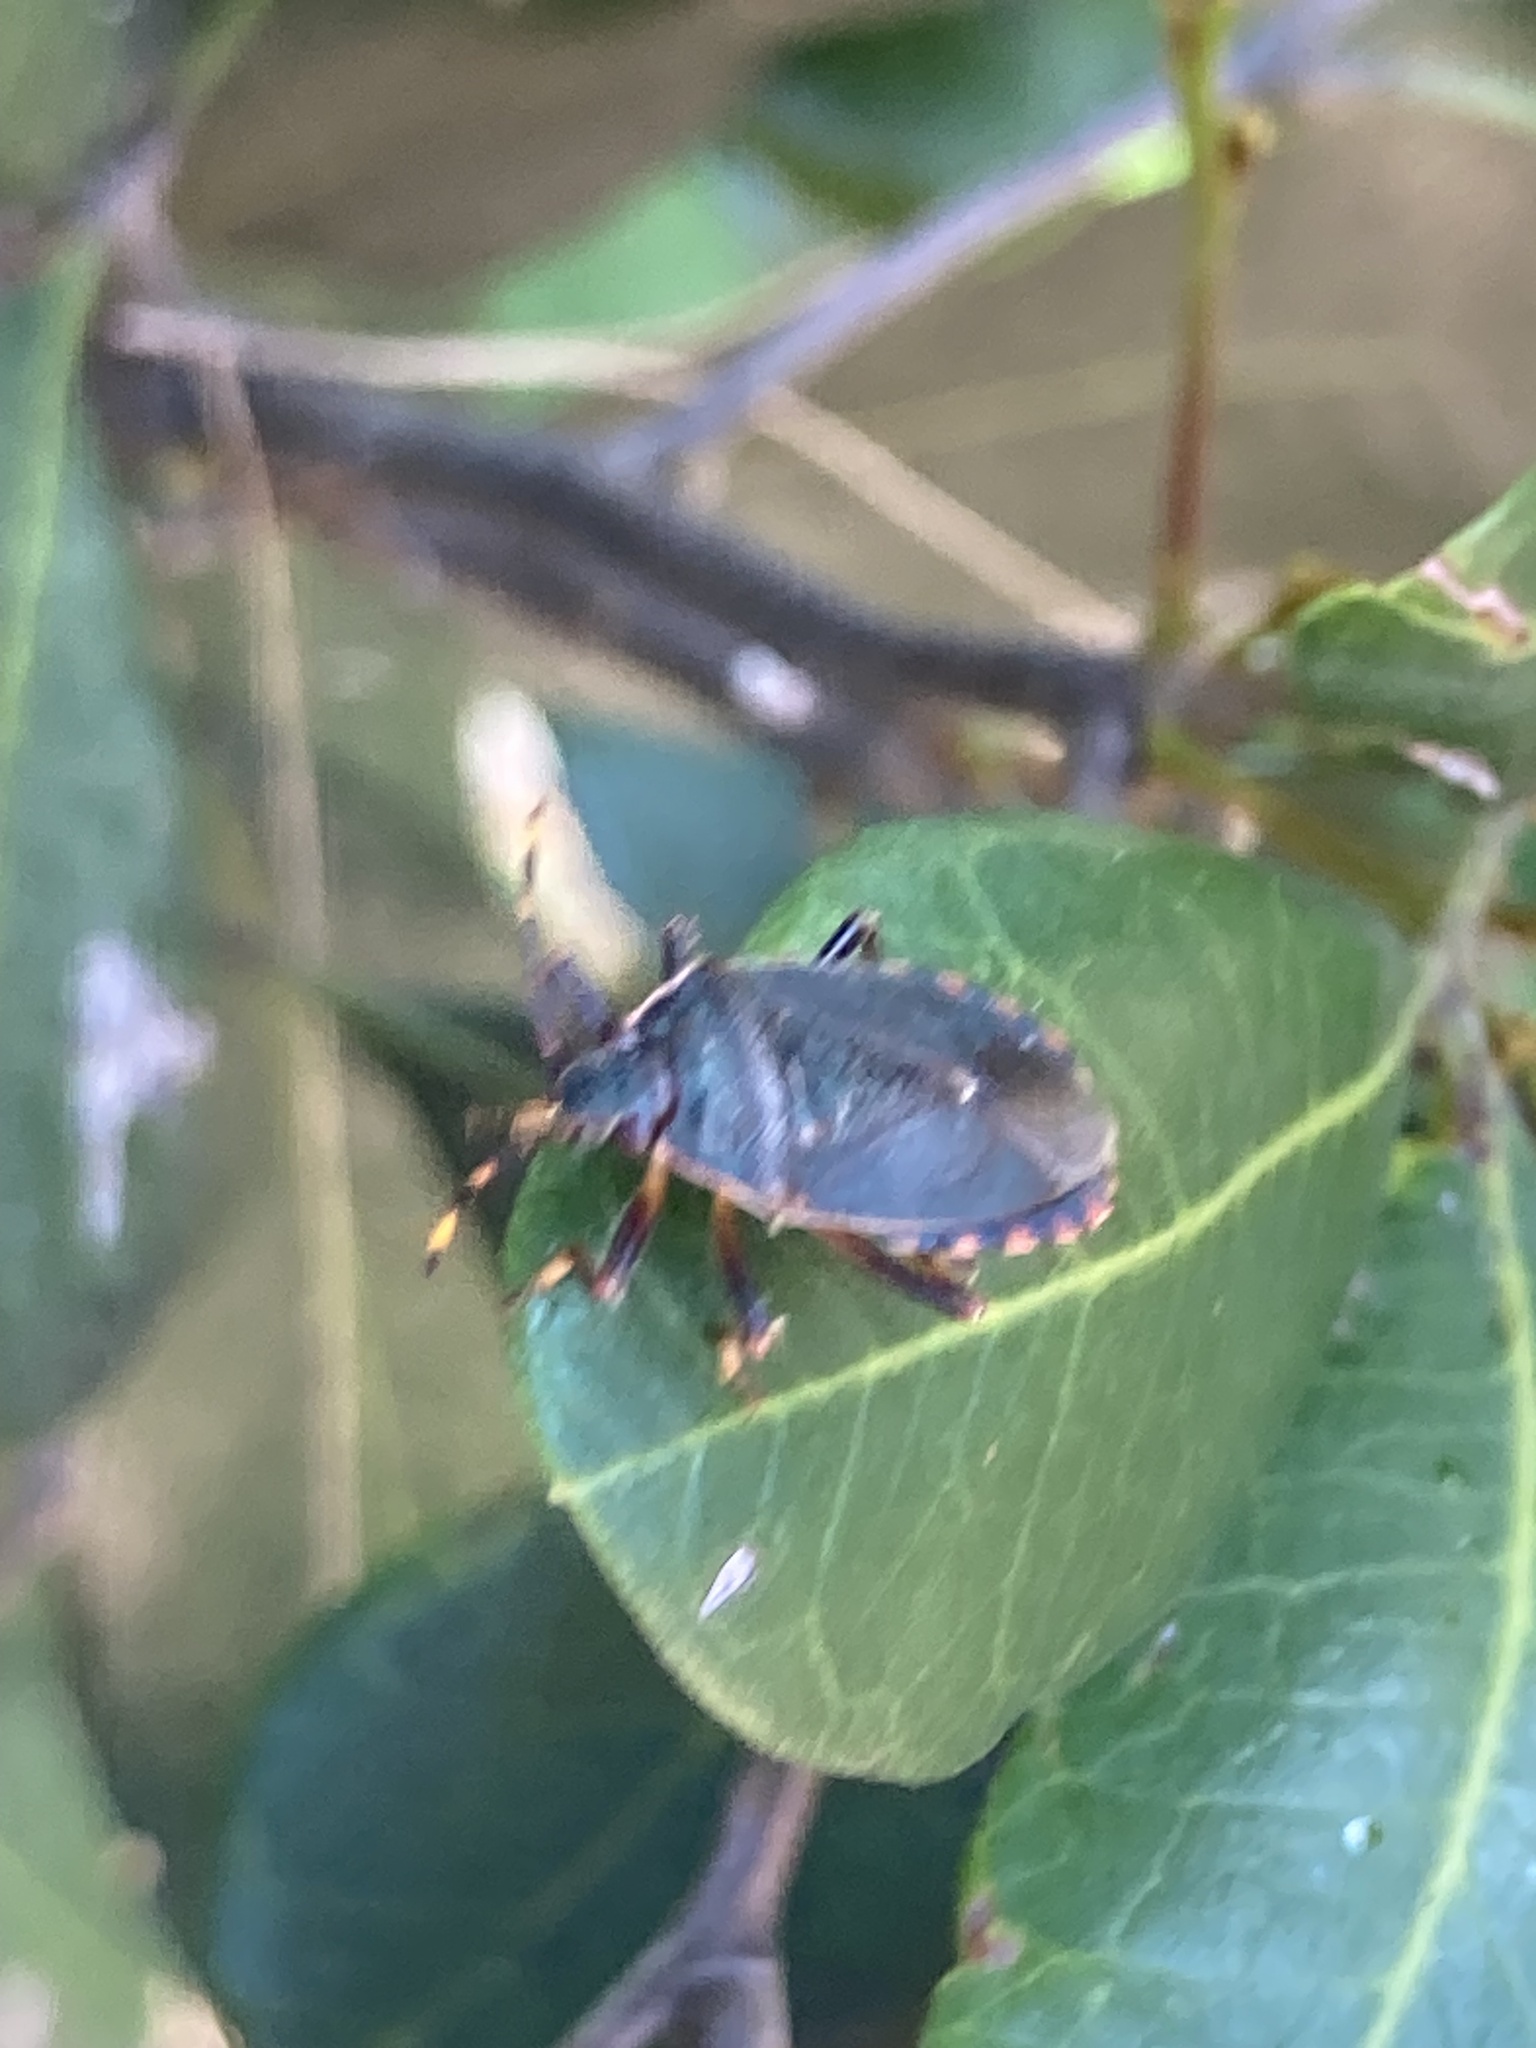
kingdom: Animalia
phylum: Arthropoda
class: Insecta
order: Hemiptera
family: Pentatomidae
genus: Notius
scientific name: Notius
